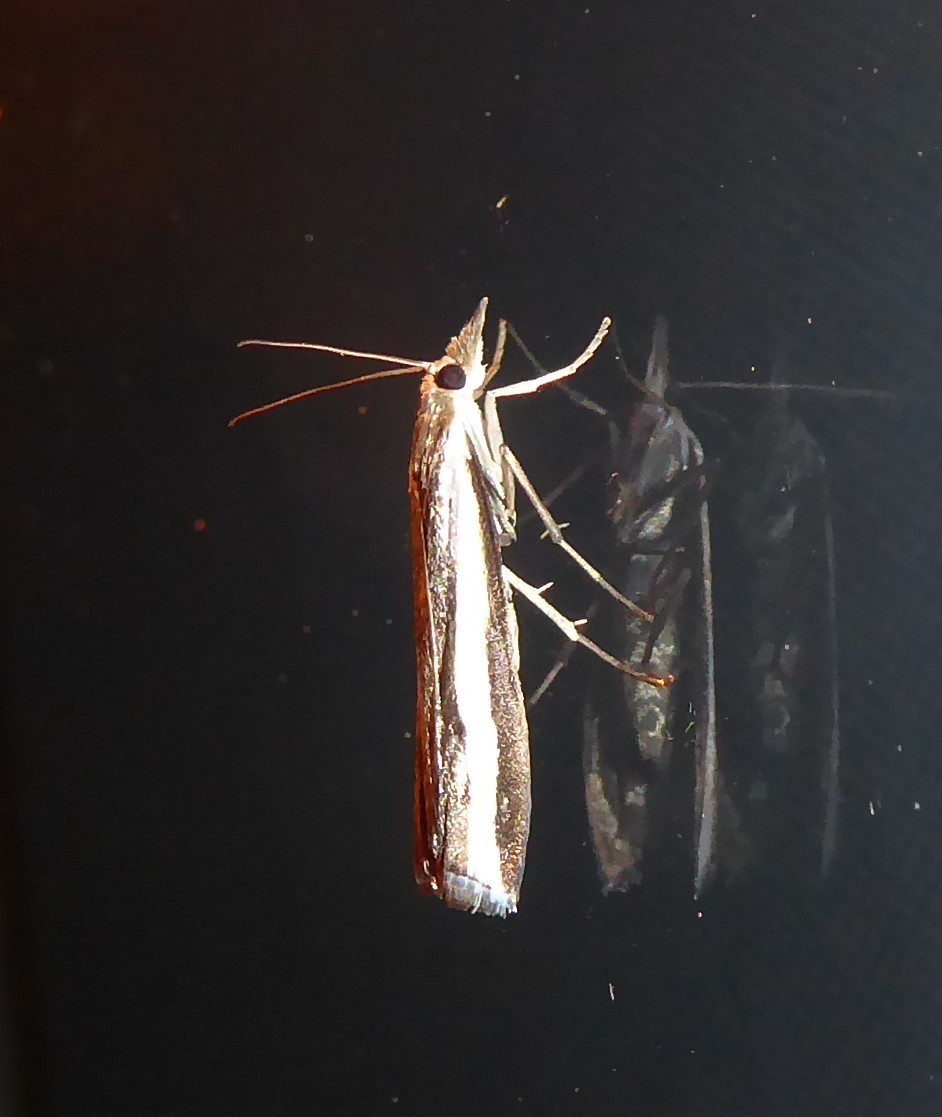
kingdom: Animalia
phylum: Arthropoda
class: Insecta
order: Lepidoptera
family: Crambidae
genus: Orocrambus
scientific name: Orocrambus flexuosellus
